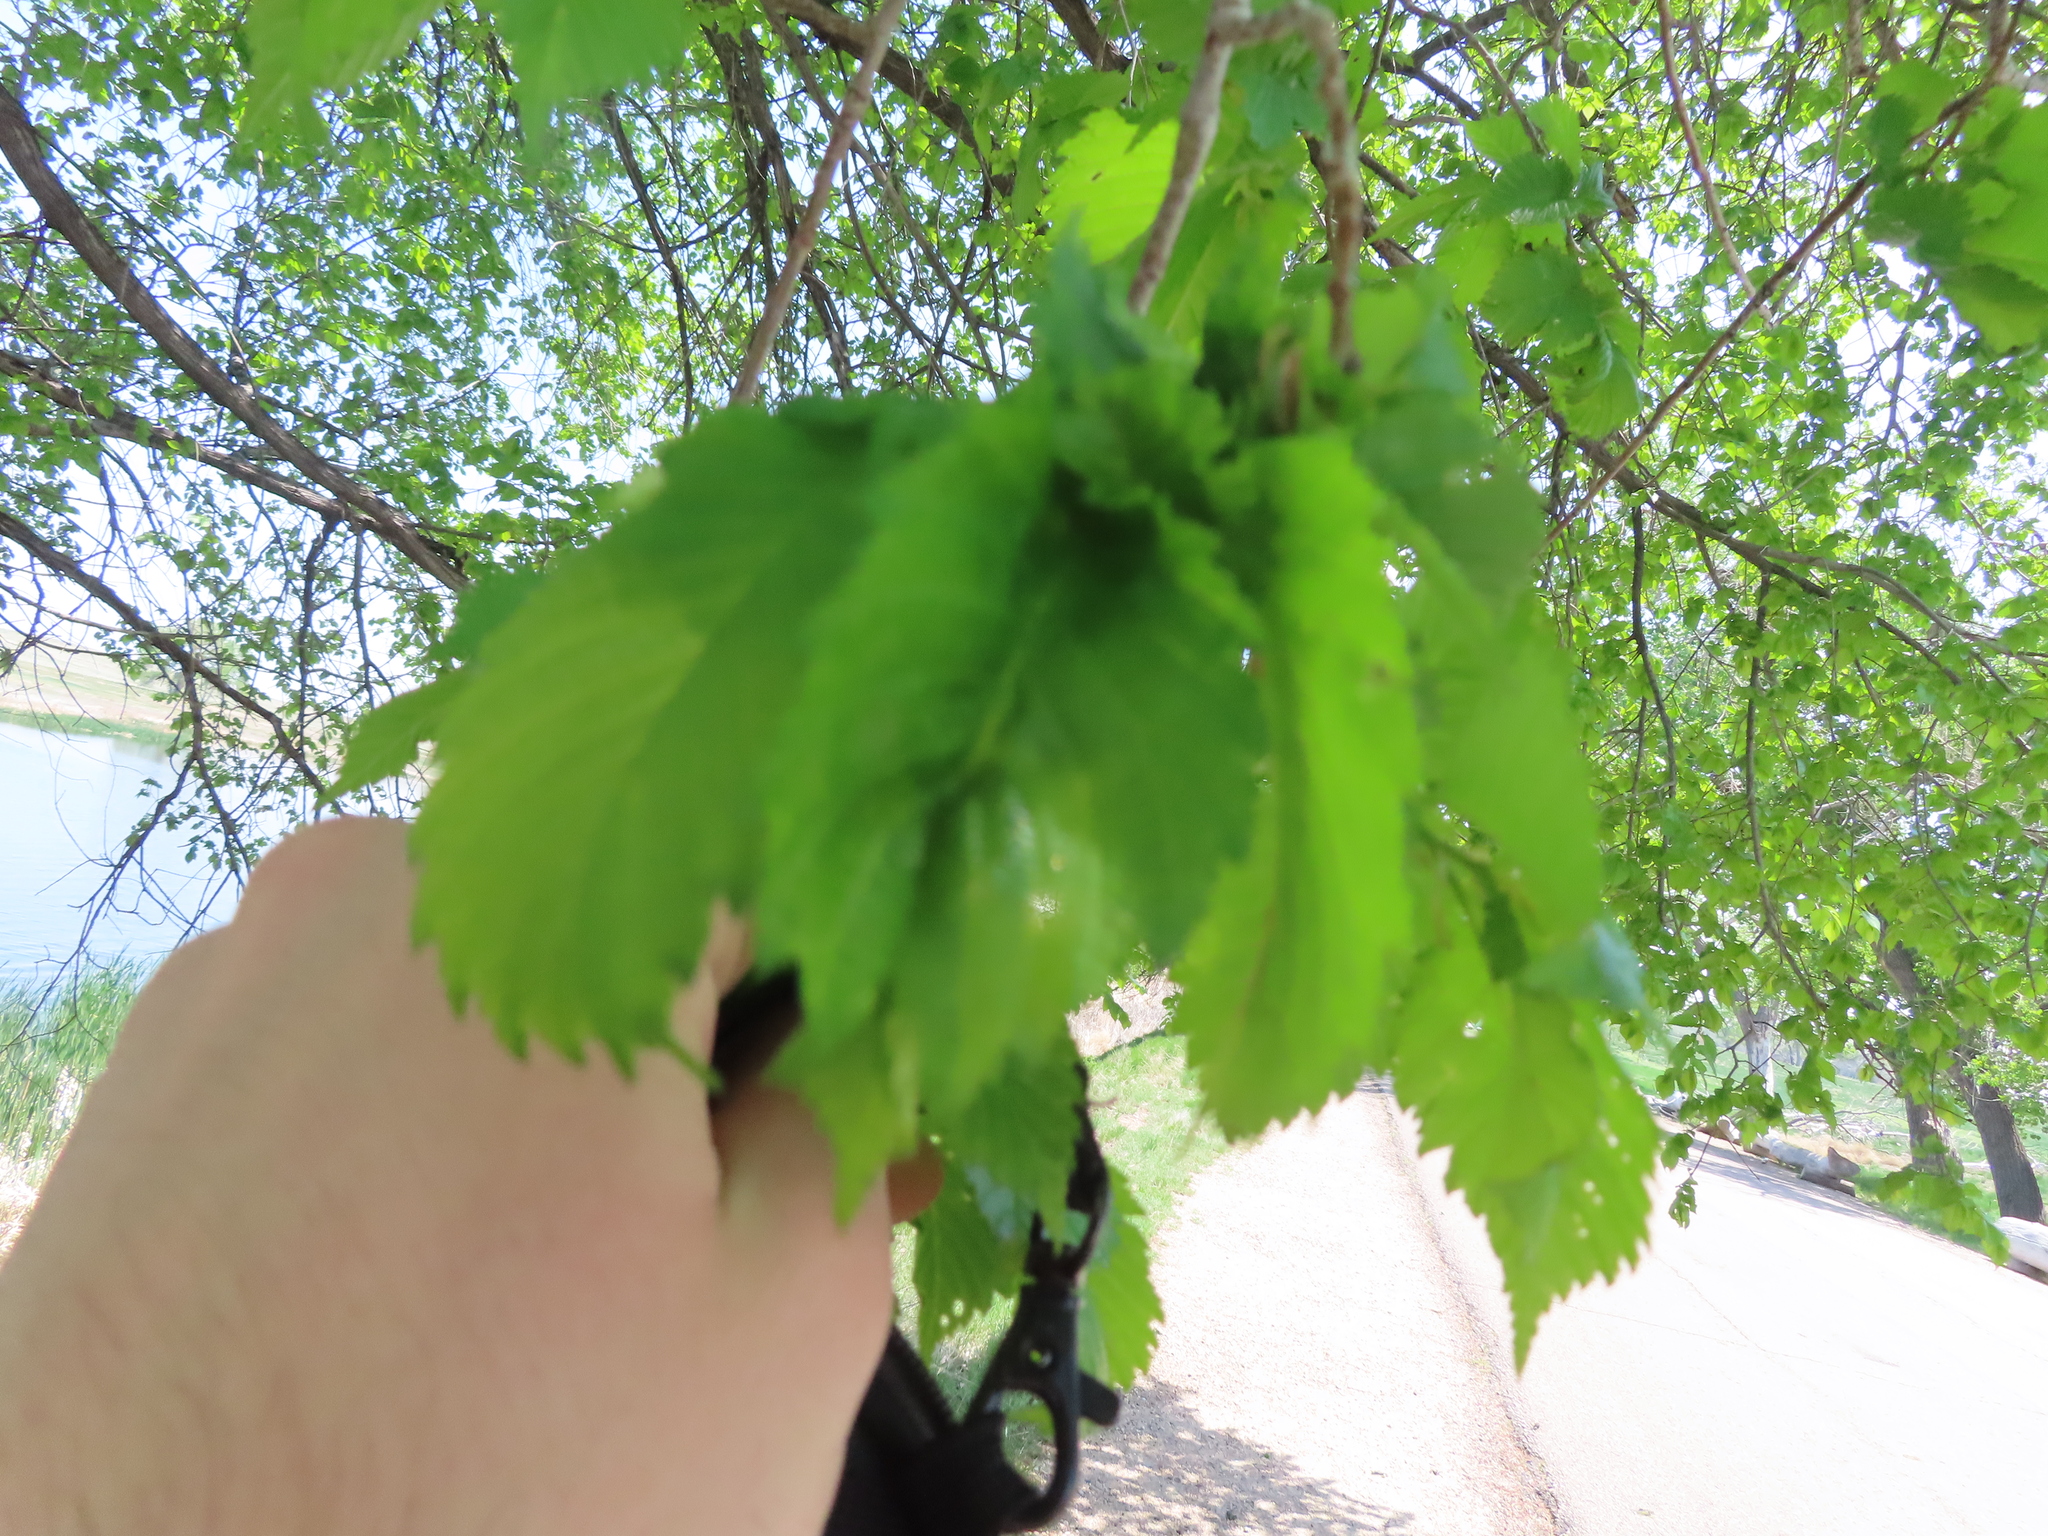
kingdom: Animalia
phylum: Arthropoda
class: Insecta
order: Hemiptera
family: Aphididae
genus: Eriosoma
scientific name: Eriosoma lanigerum
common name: Woolly apple aphid
